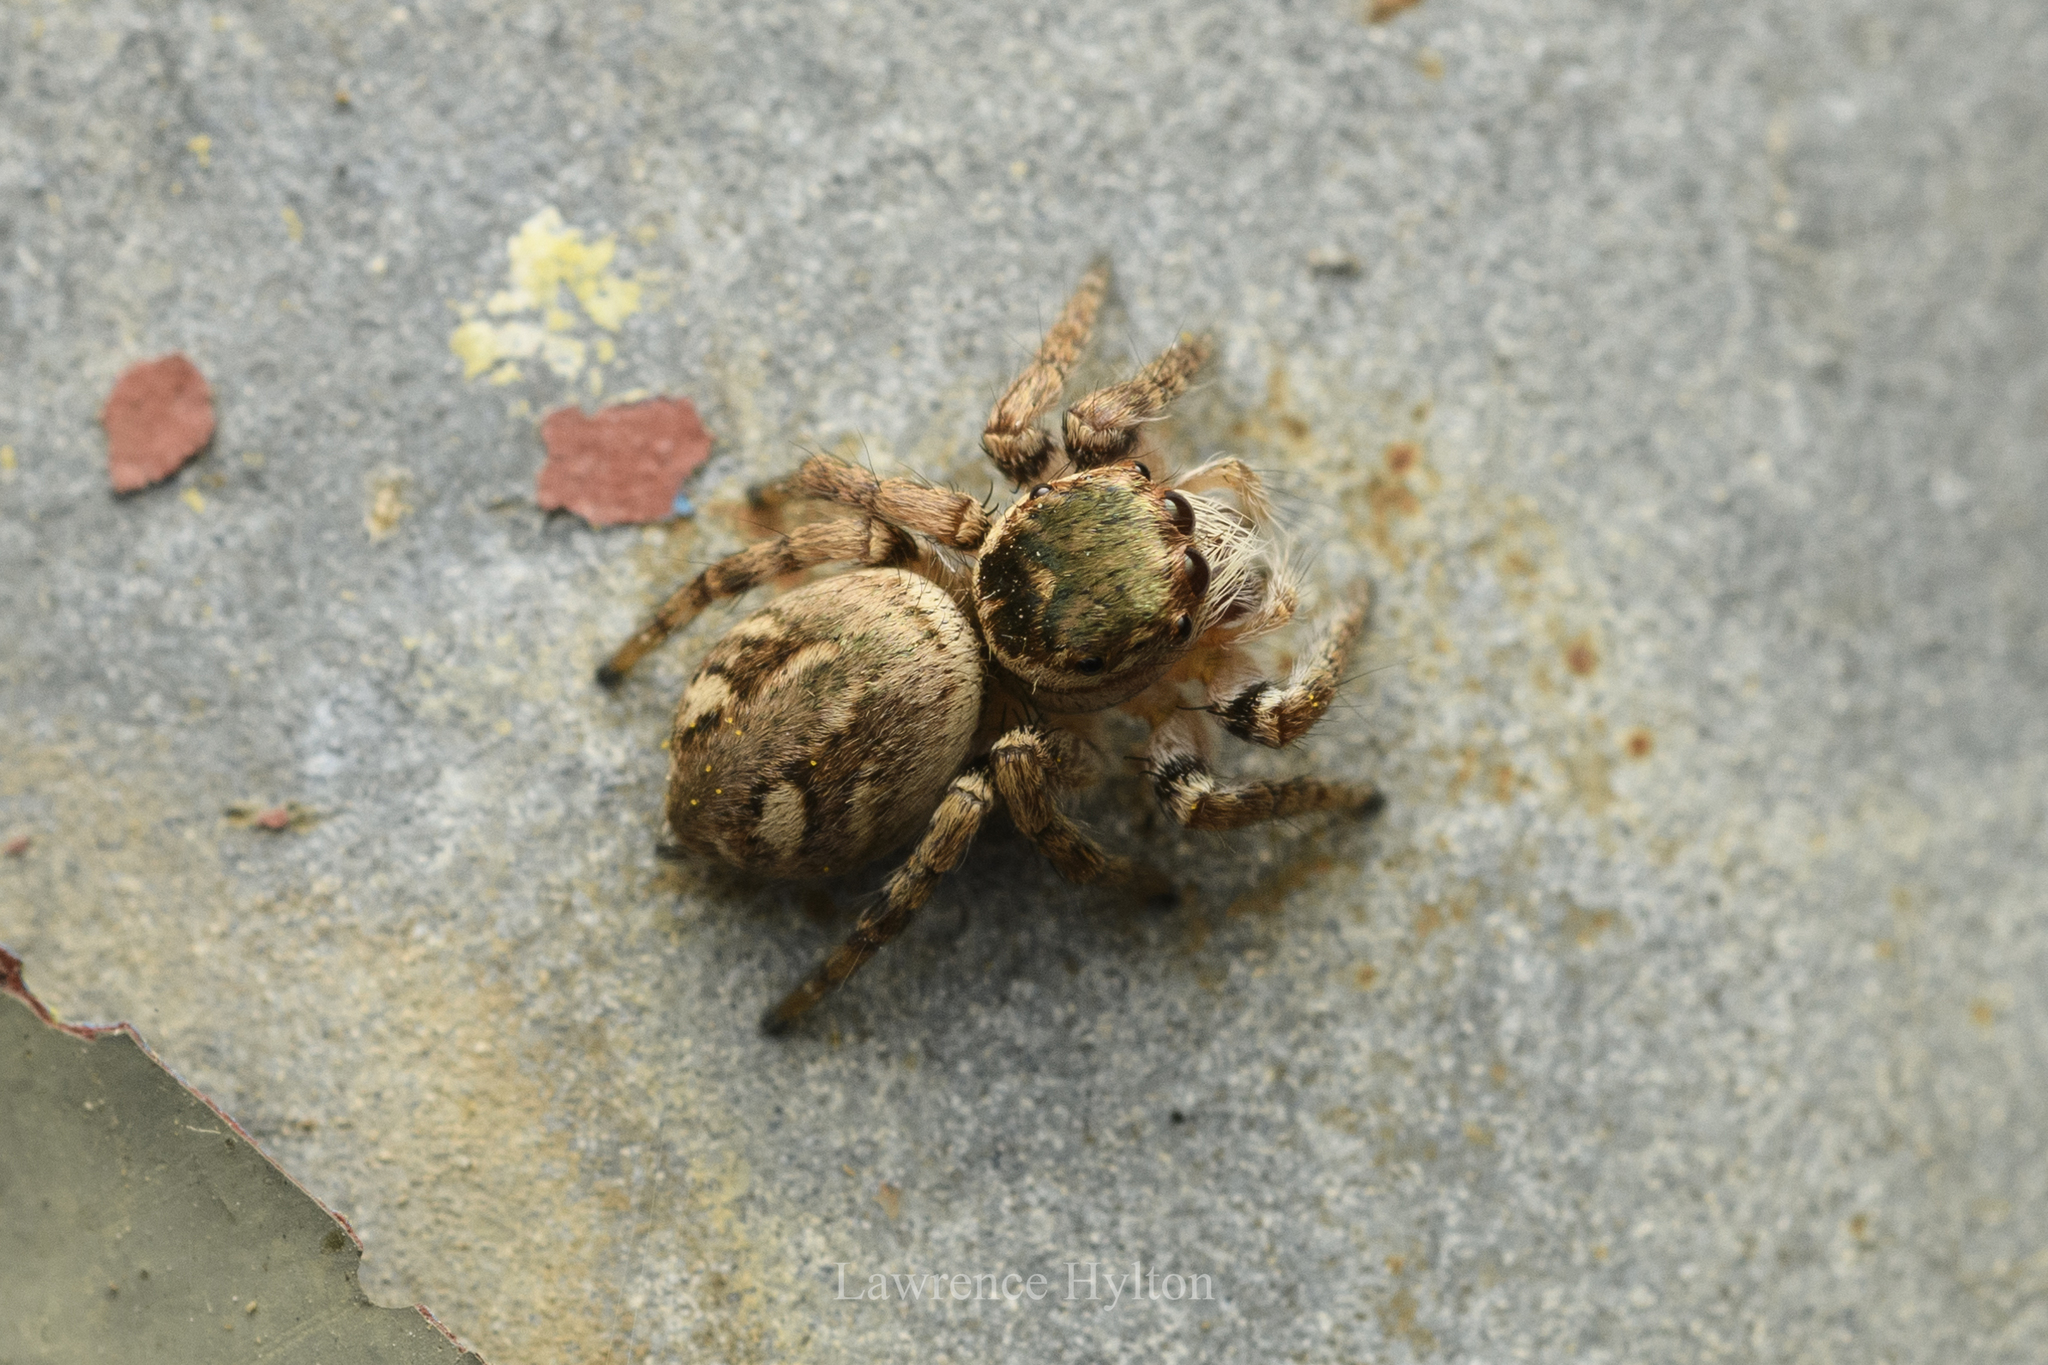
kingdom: Animalia
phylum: Arthropoda
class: Arachnida
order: Araneae
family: Salticidae
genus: Carrhotus
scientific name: Carrhotus viduus
